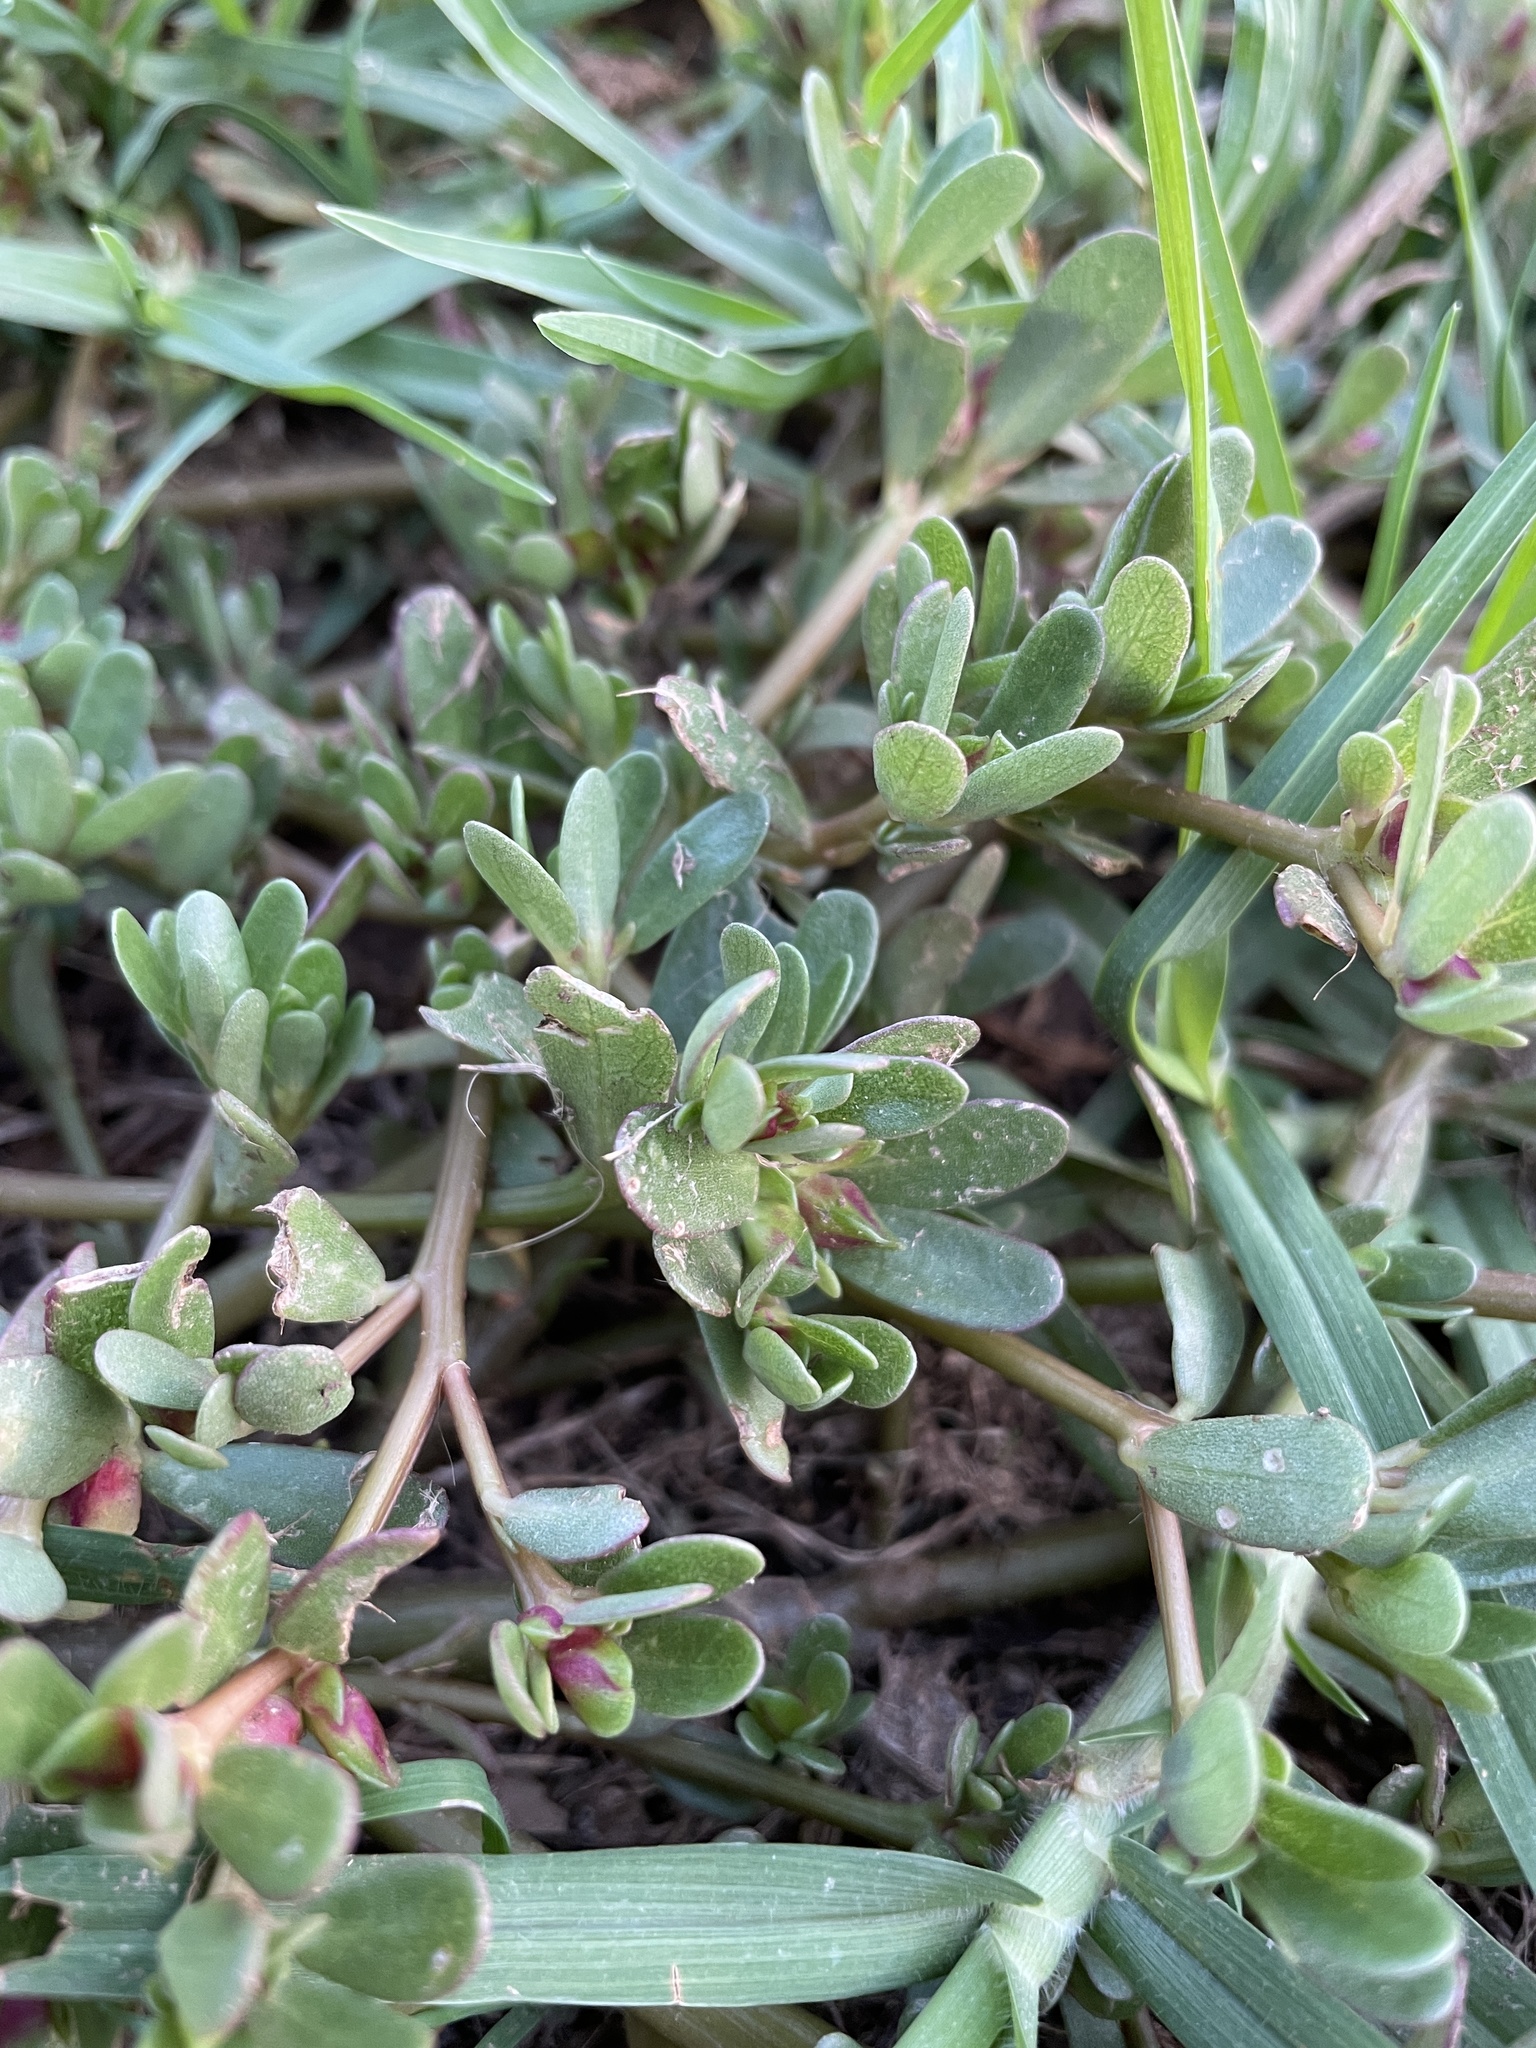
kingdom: Plantae
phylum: Tracheophyta
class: Magnoliopsida
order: Caryophyllales
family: Portulacaceae
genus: Portulaca
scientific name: Portulaca oleracea
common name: Common purslane
